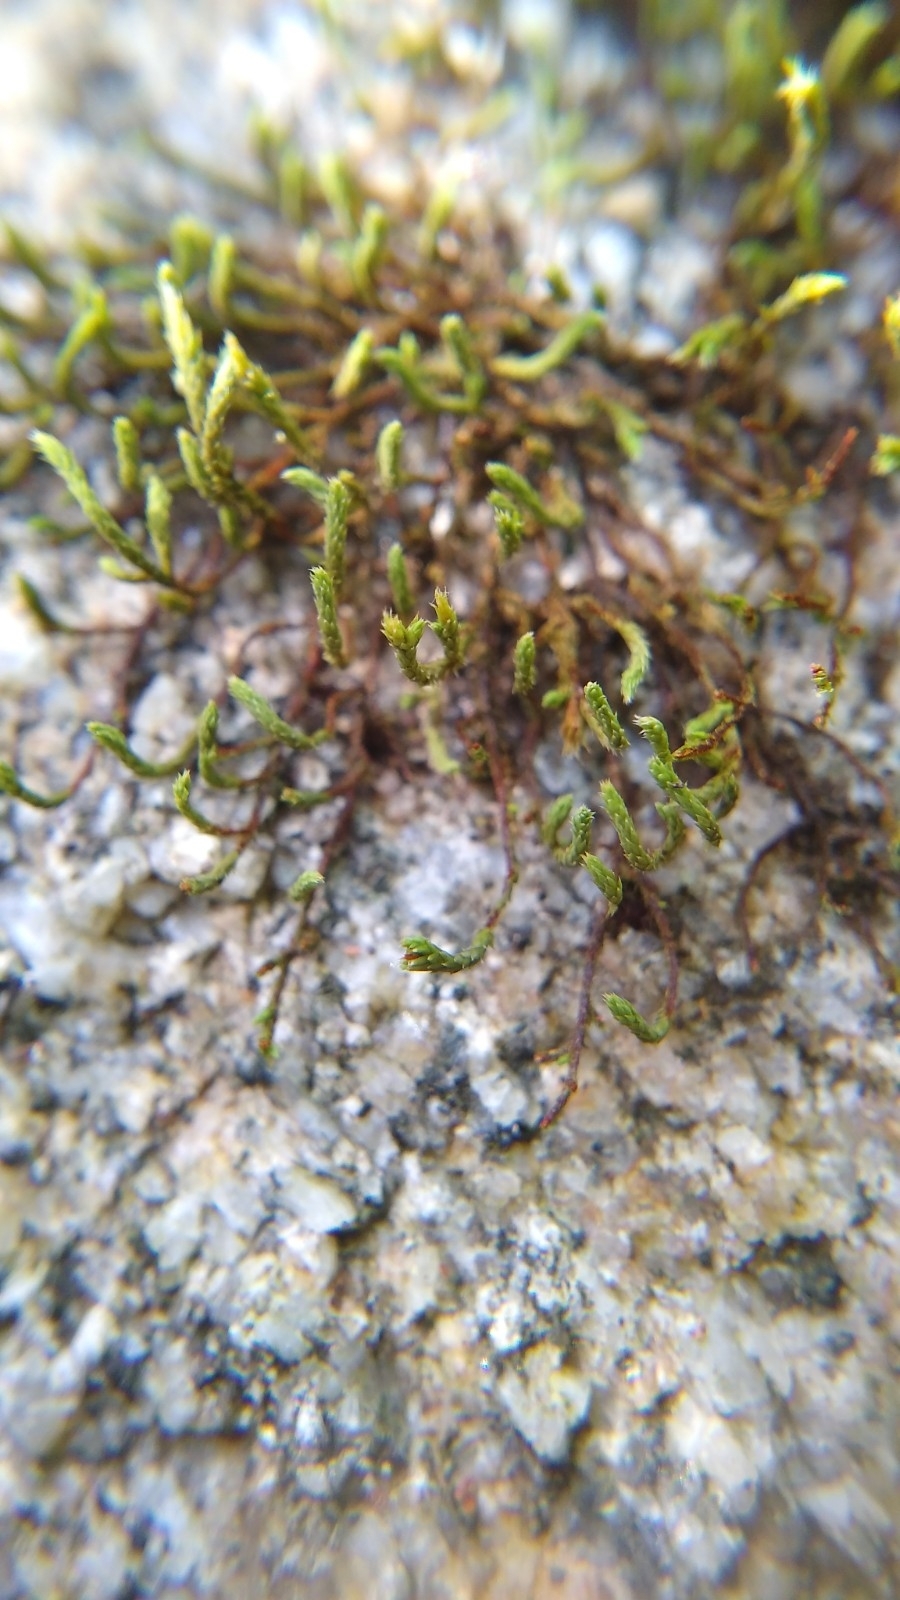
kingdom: Plantae
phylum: Bryophyta
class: Bryopsida
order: Hedwigiales
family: Hedwigiaceae
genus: Hedwigia
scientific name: Hedwigia ciliata
